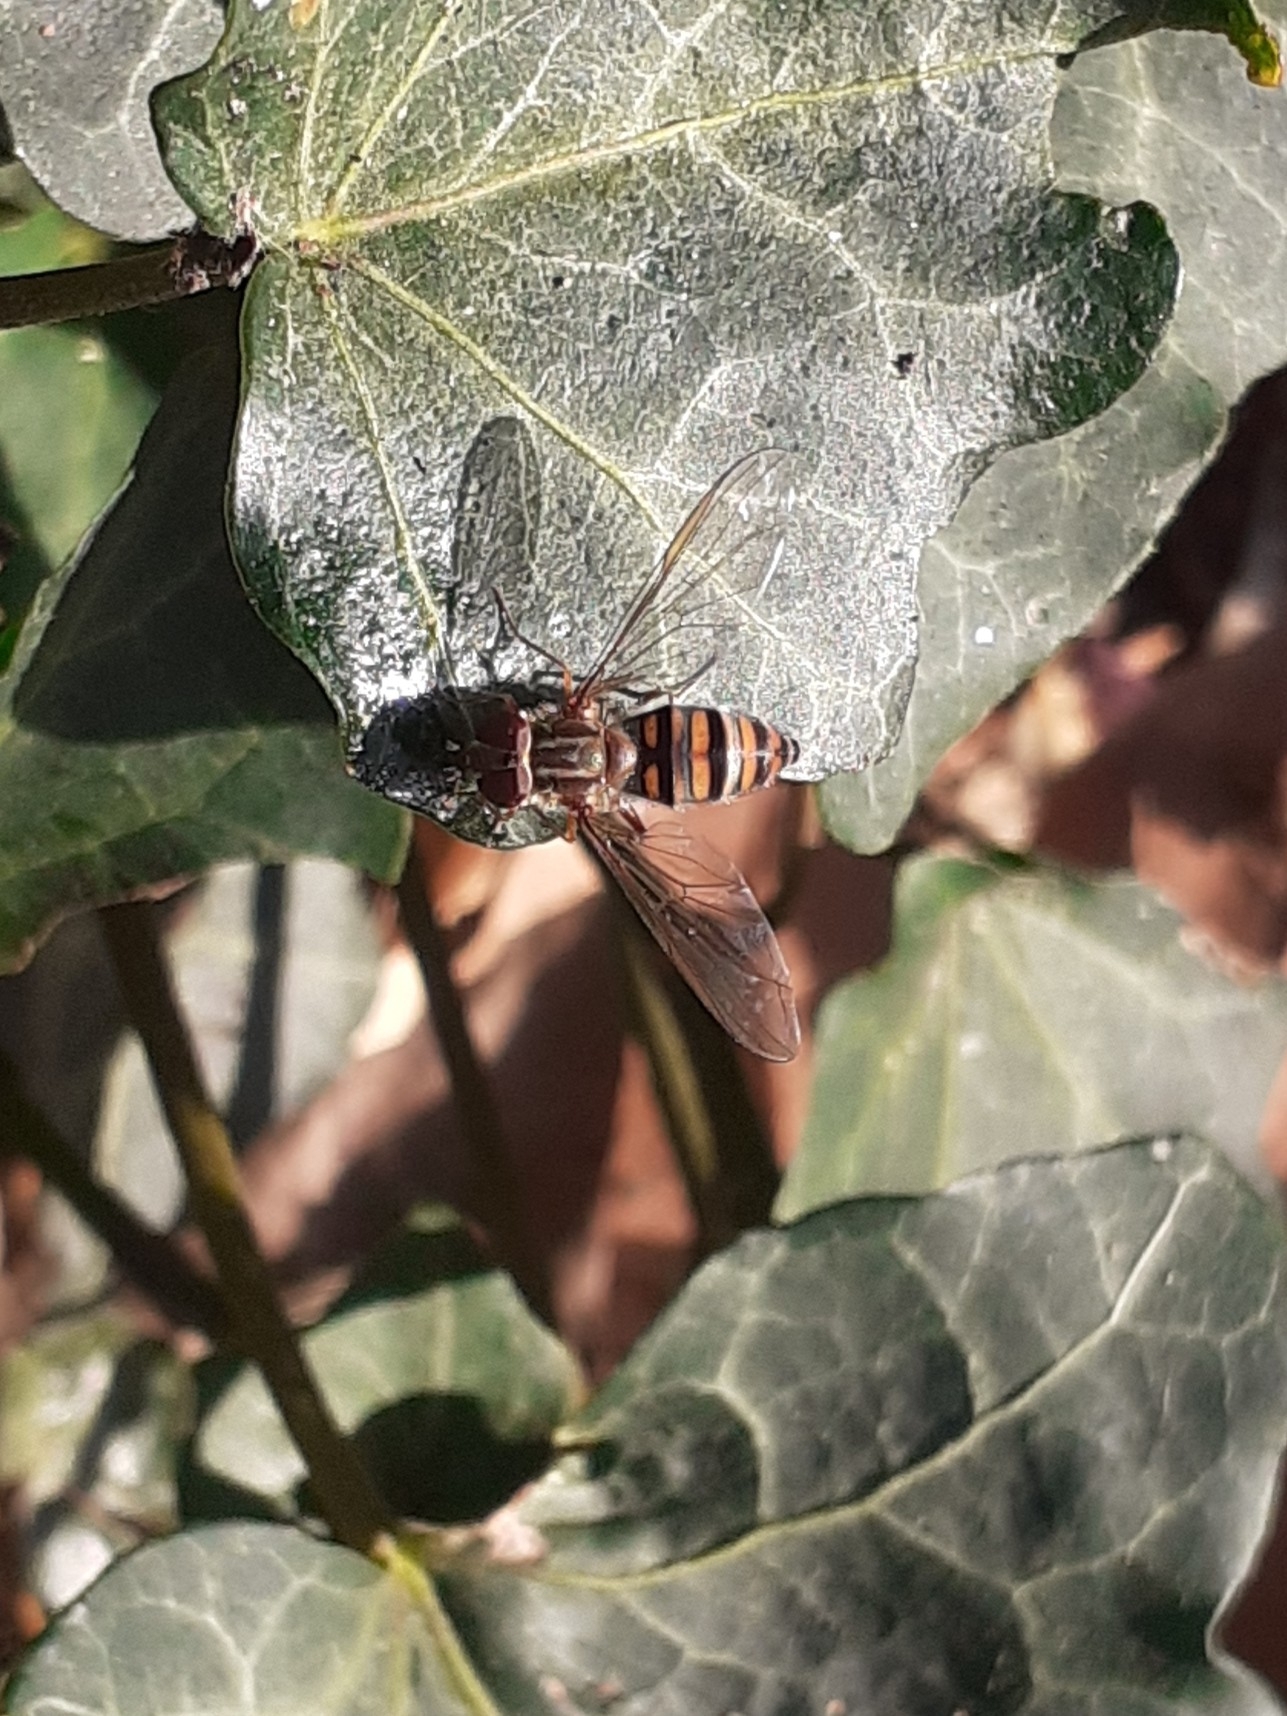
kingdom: Animalia
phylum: Arthropoda
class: Insecta
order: Diptera
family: Syrphidae
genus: Episyrphus
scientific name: Episyrphus balteatus
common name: Marmalade hoverfly
